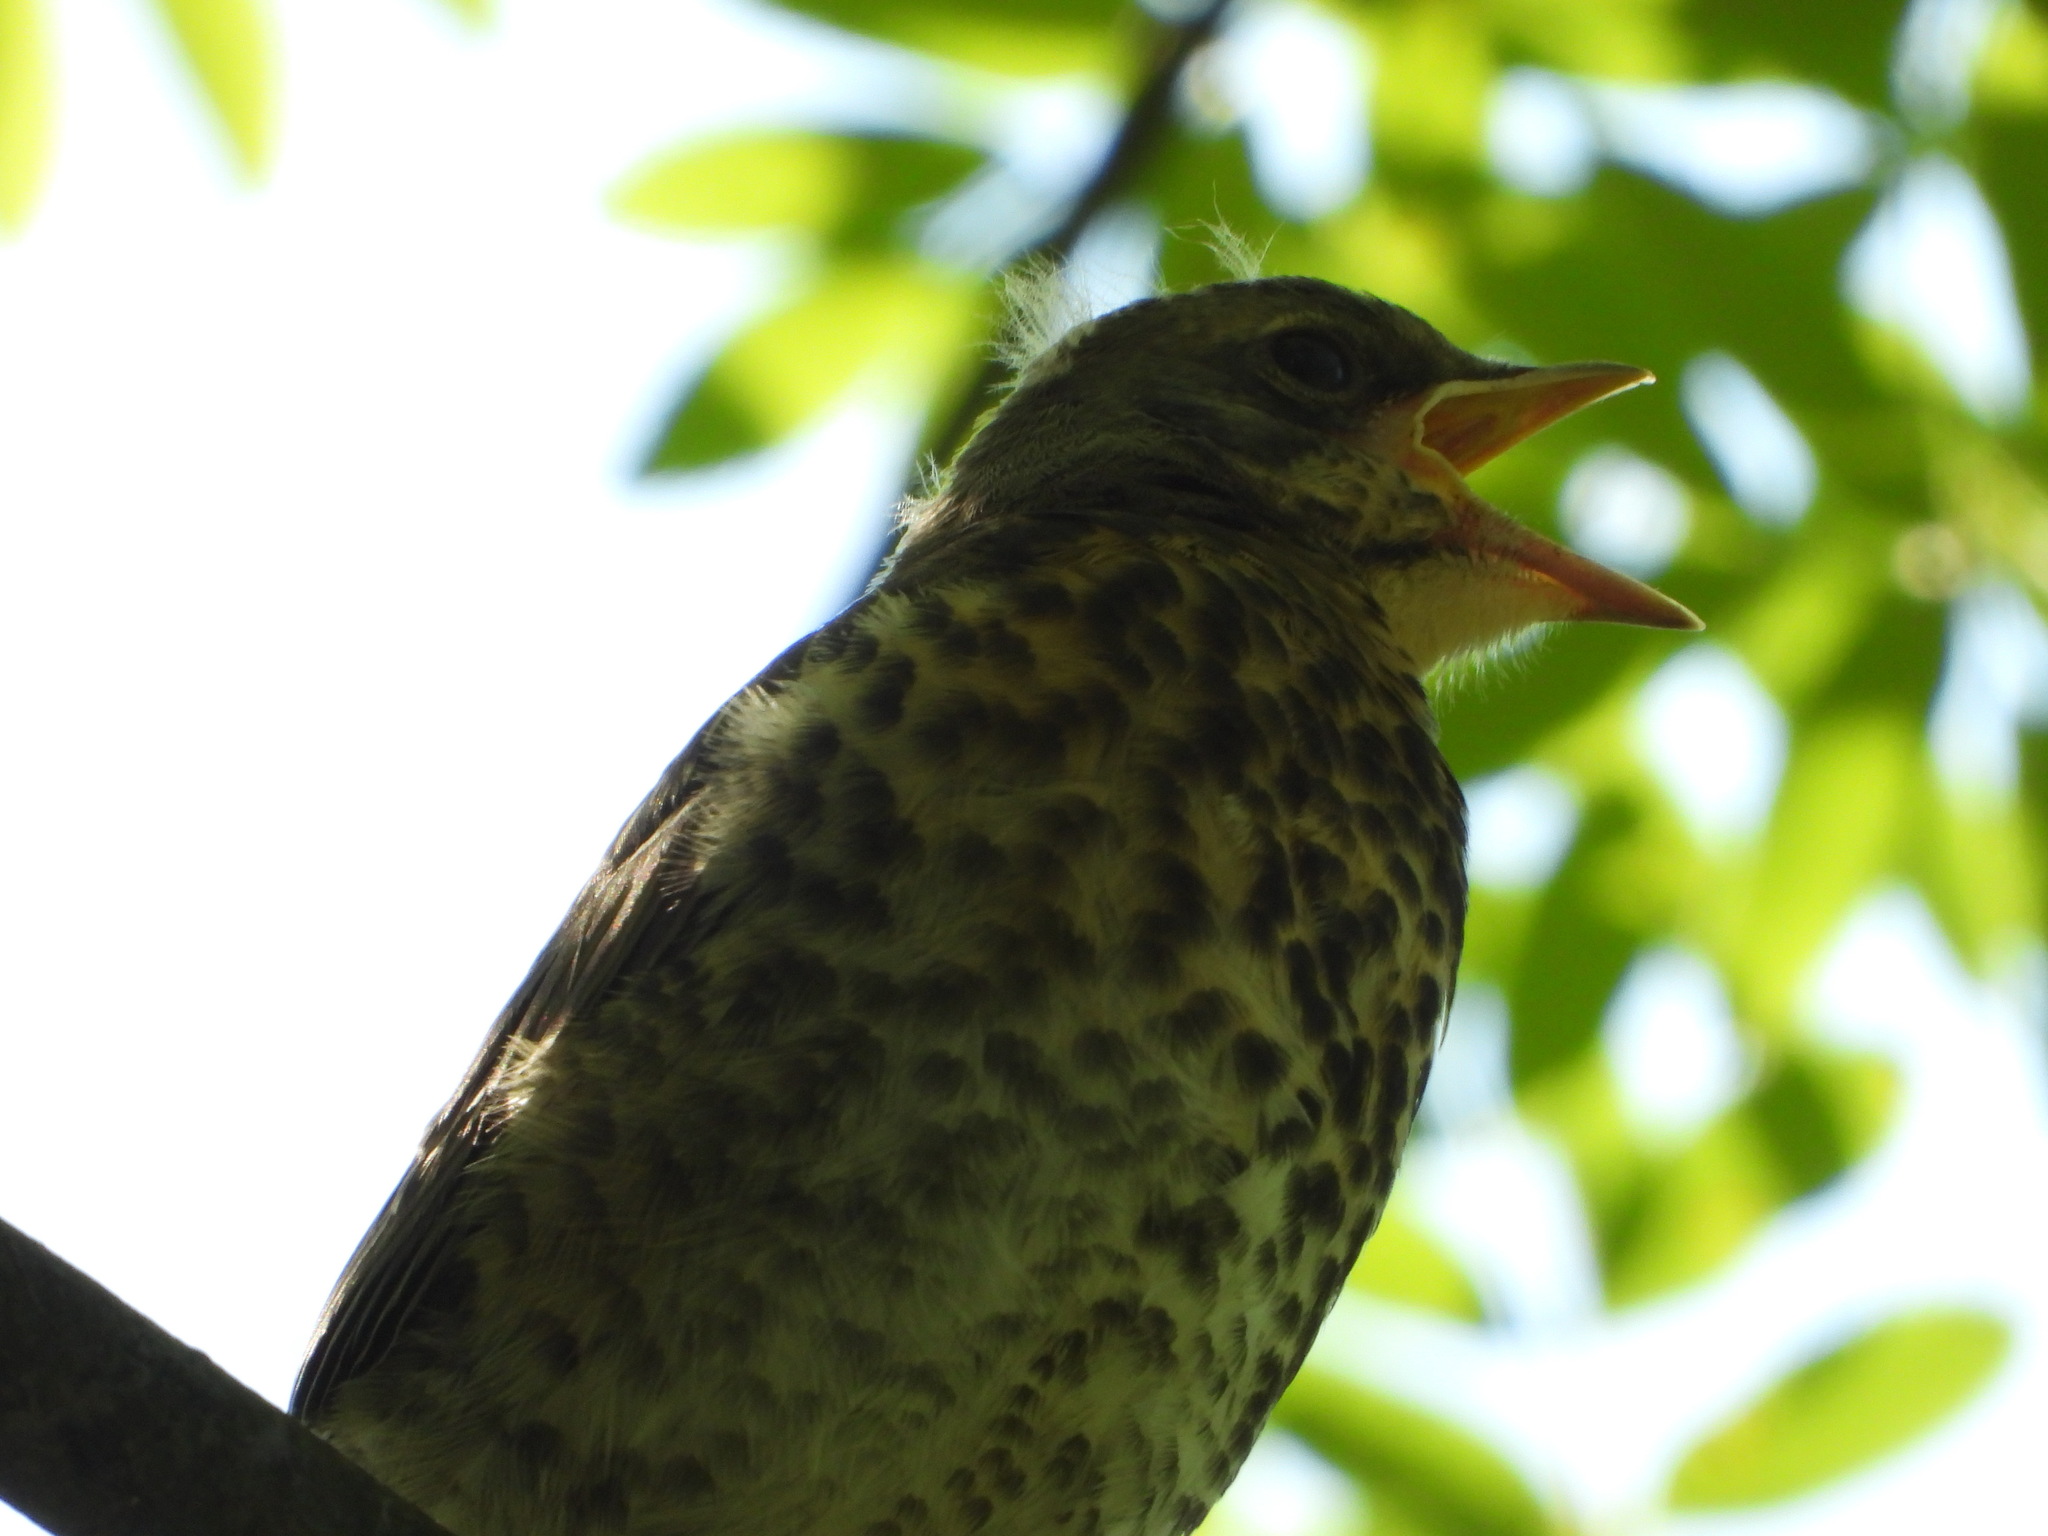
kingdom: Animalia
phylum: Chordata
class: Aves
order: Passeriformes
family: Turdidae
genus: Turdus
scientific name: Turdus pilaris
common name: Fieldfare
